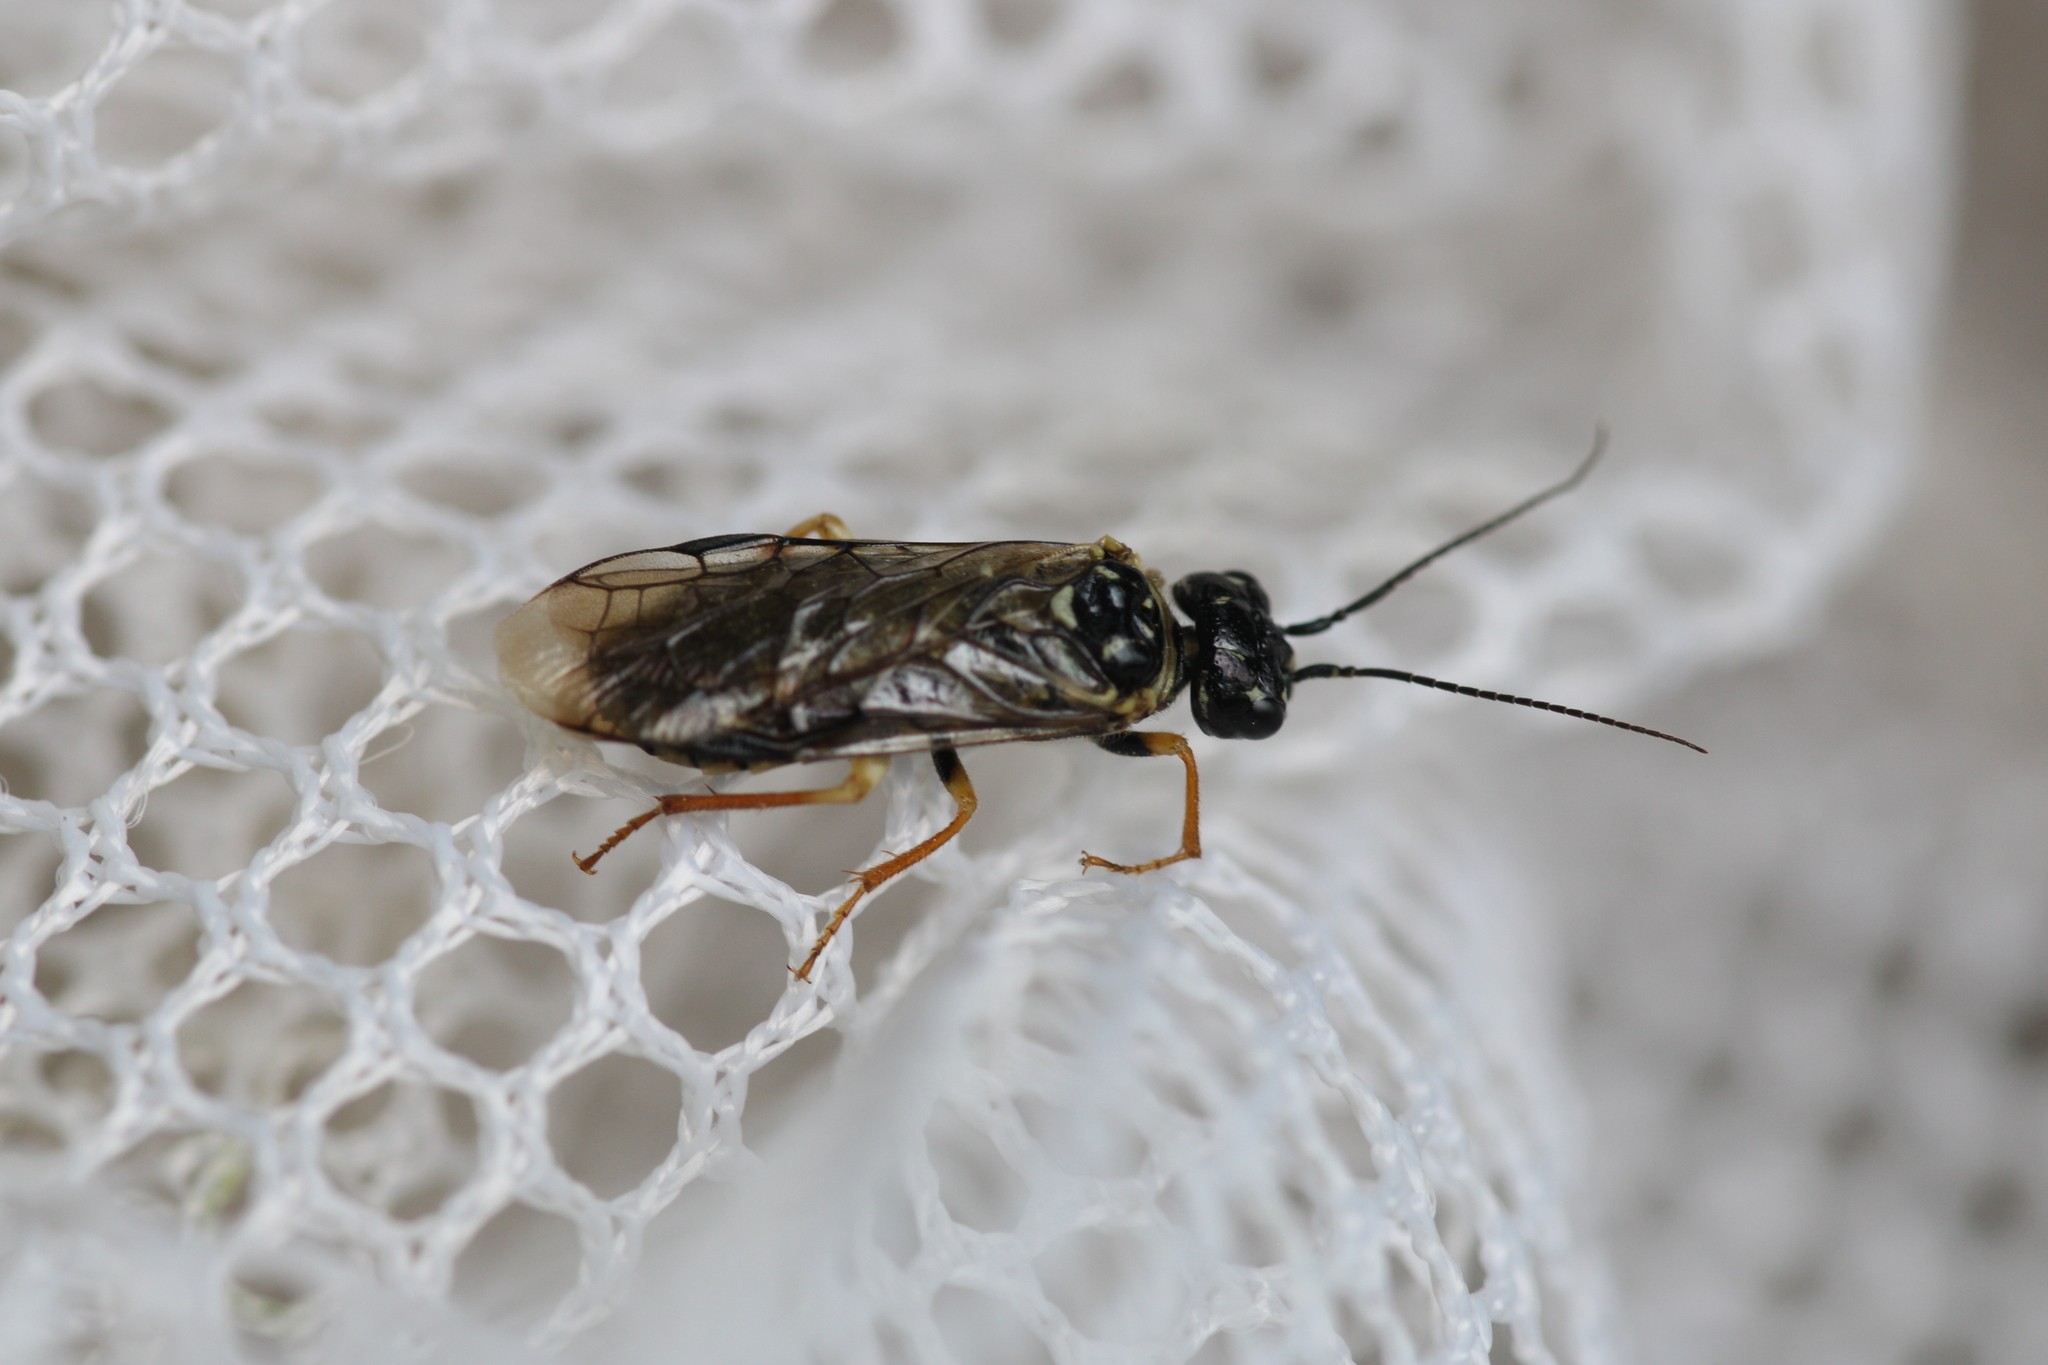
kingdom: Animalia
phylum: Arthropoda
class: Insecta
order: Hymenoptera
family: Pamphiliidae
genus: Neurotoma
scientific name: Neurotoma nemoralis
